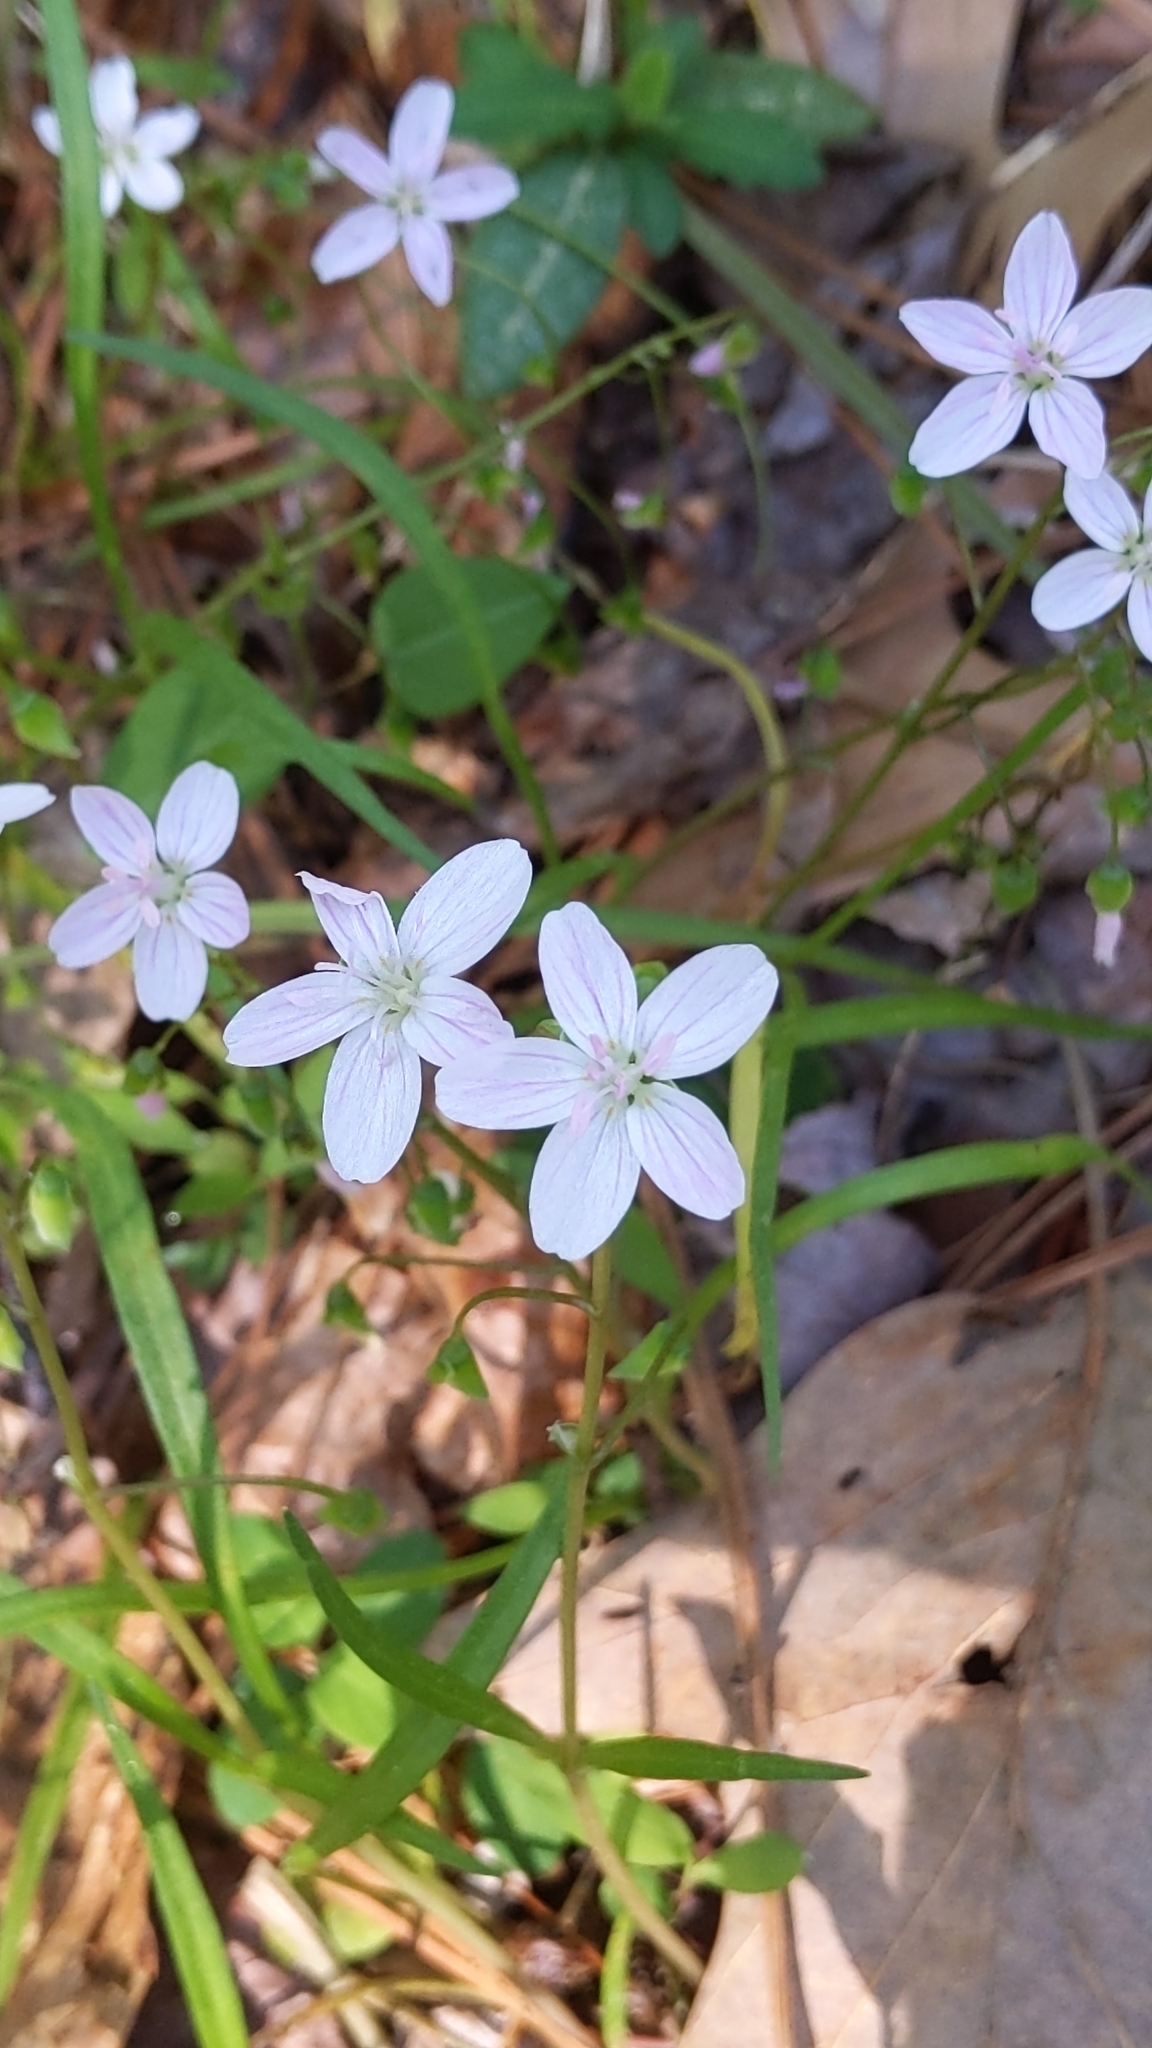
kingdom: Plantae
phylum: Tracheophyta
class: Magnoliopsida
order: Caryophyllales
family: Montiaceae
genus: Claytonia
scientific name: Claytonia virginica
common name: Virginia springbeauty
